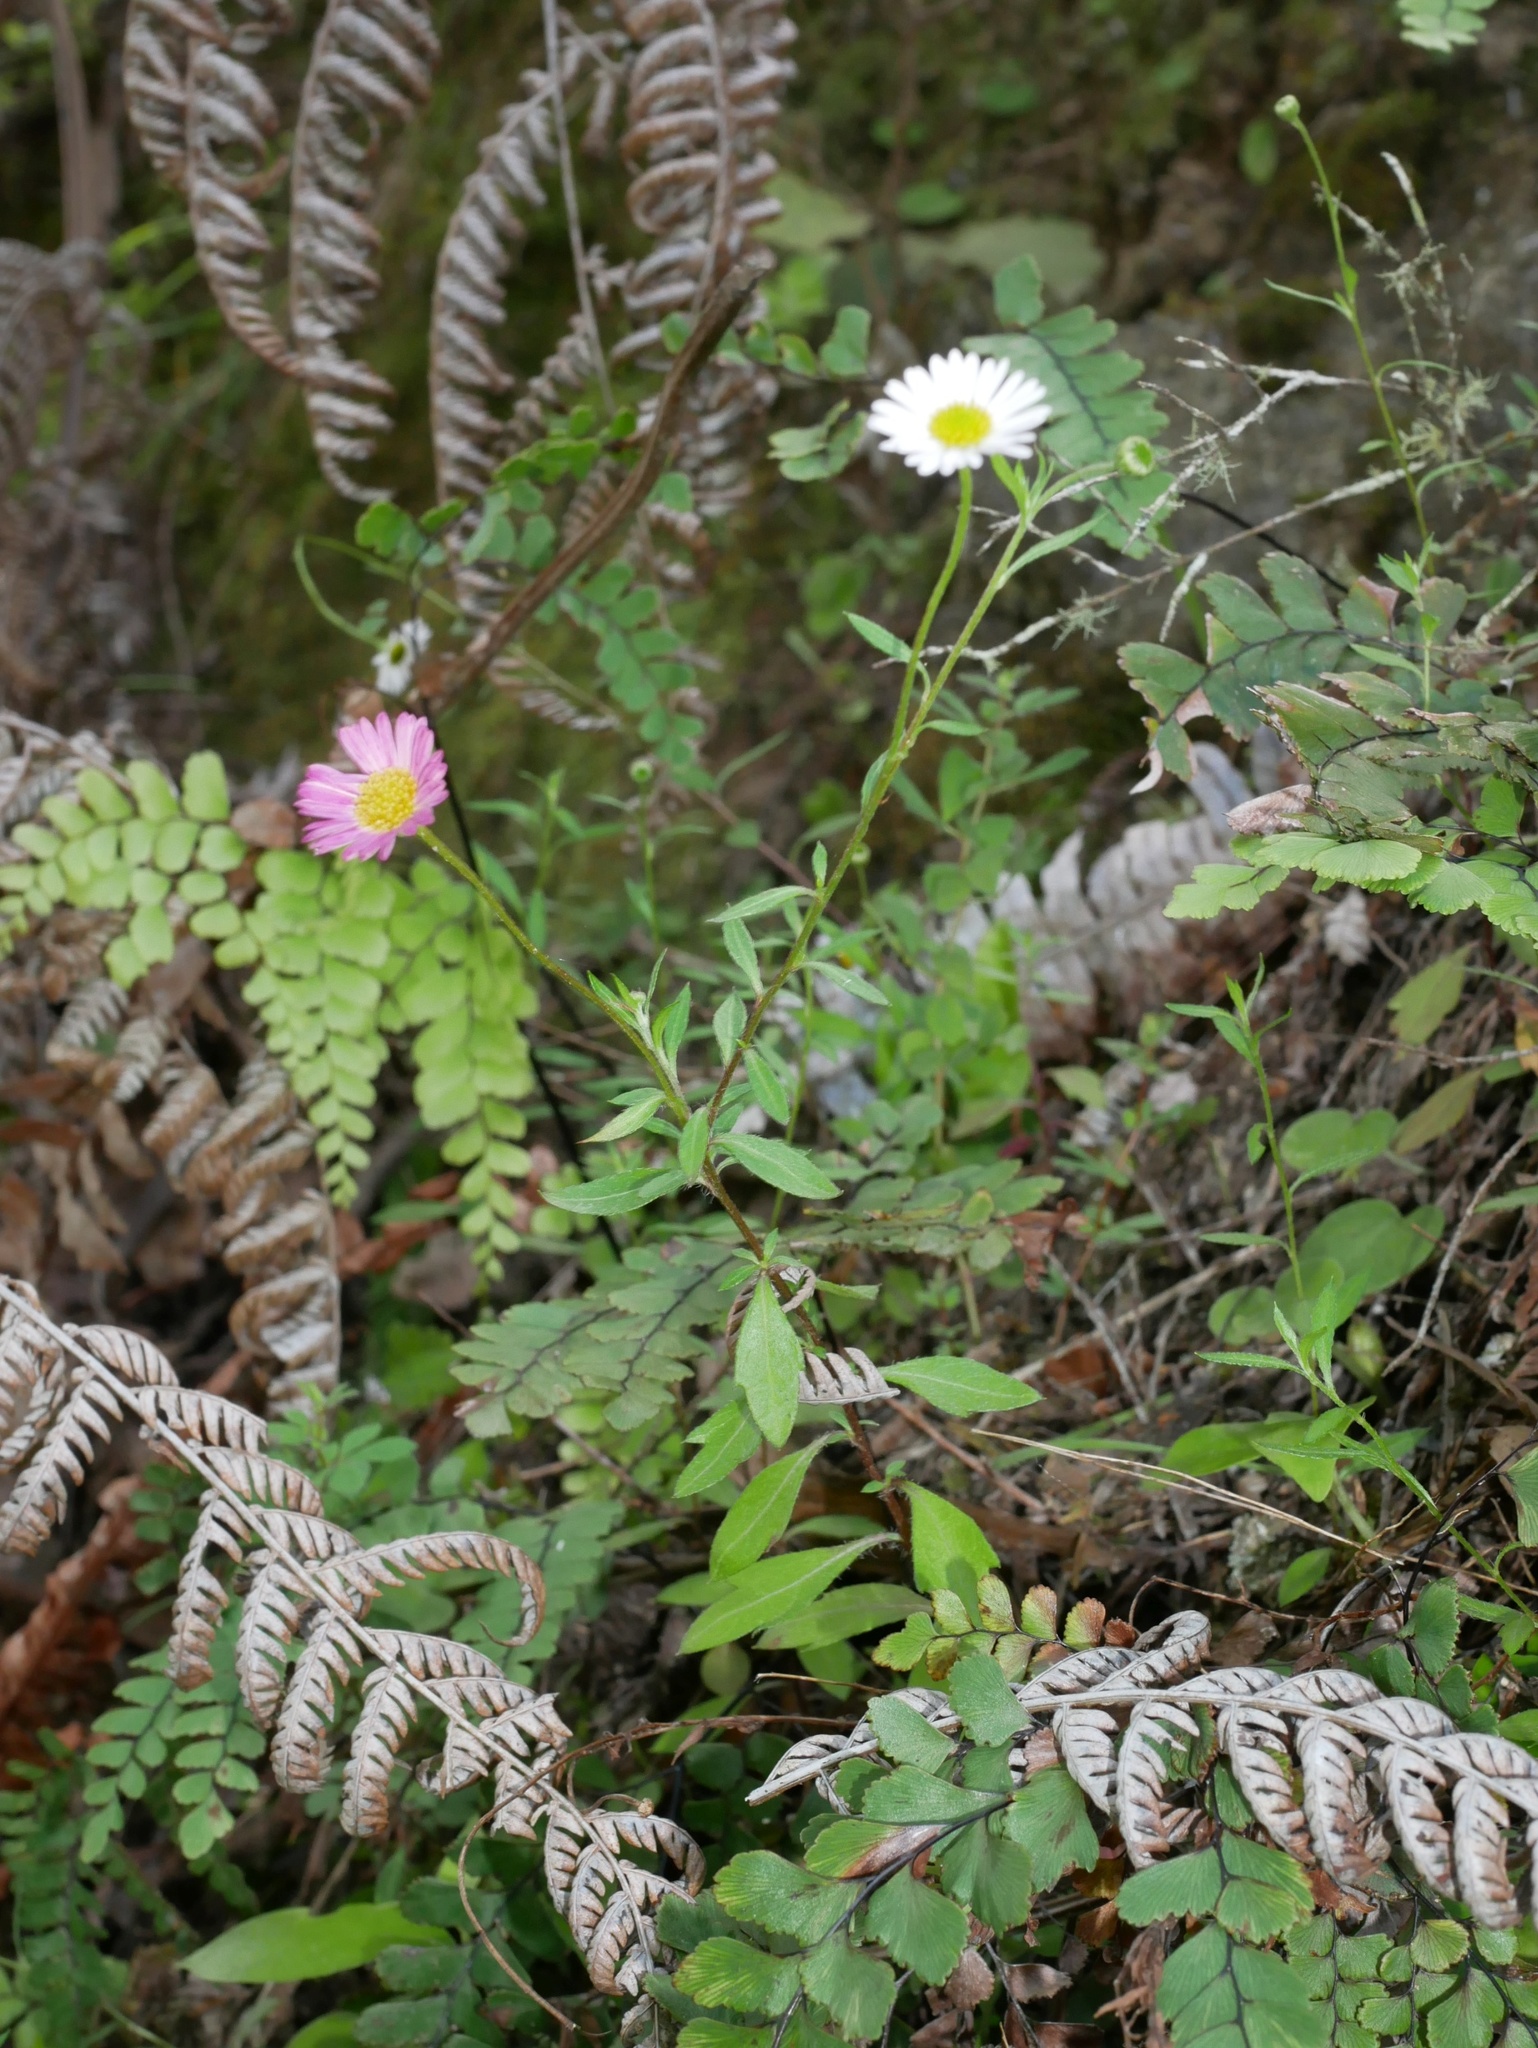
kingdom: Plantae
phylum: Tracheophyta
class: Magnoliopsida
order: Asterales
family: Asteraceae
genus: Erigeron
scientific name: Erigeron karvinskianus
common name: Mexican fleabane
